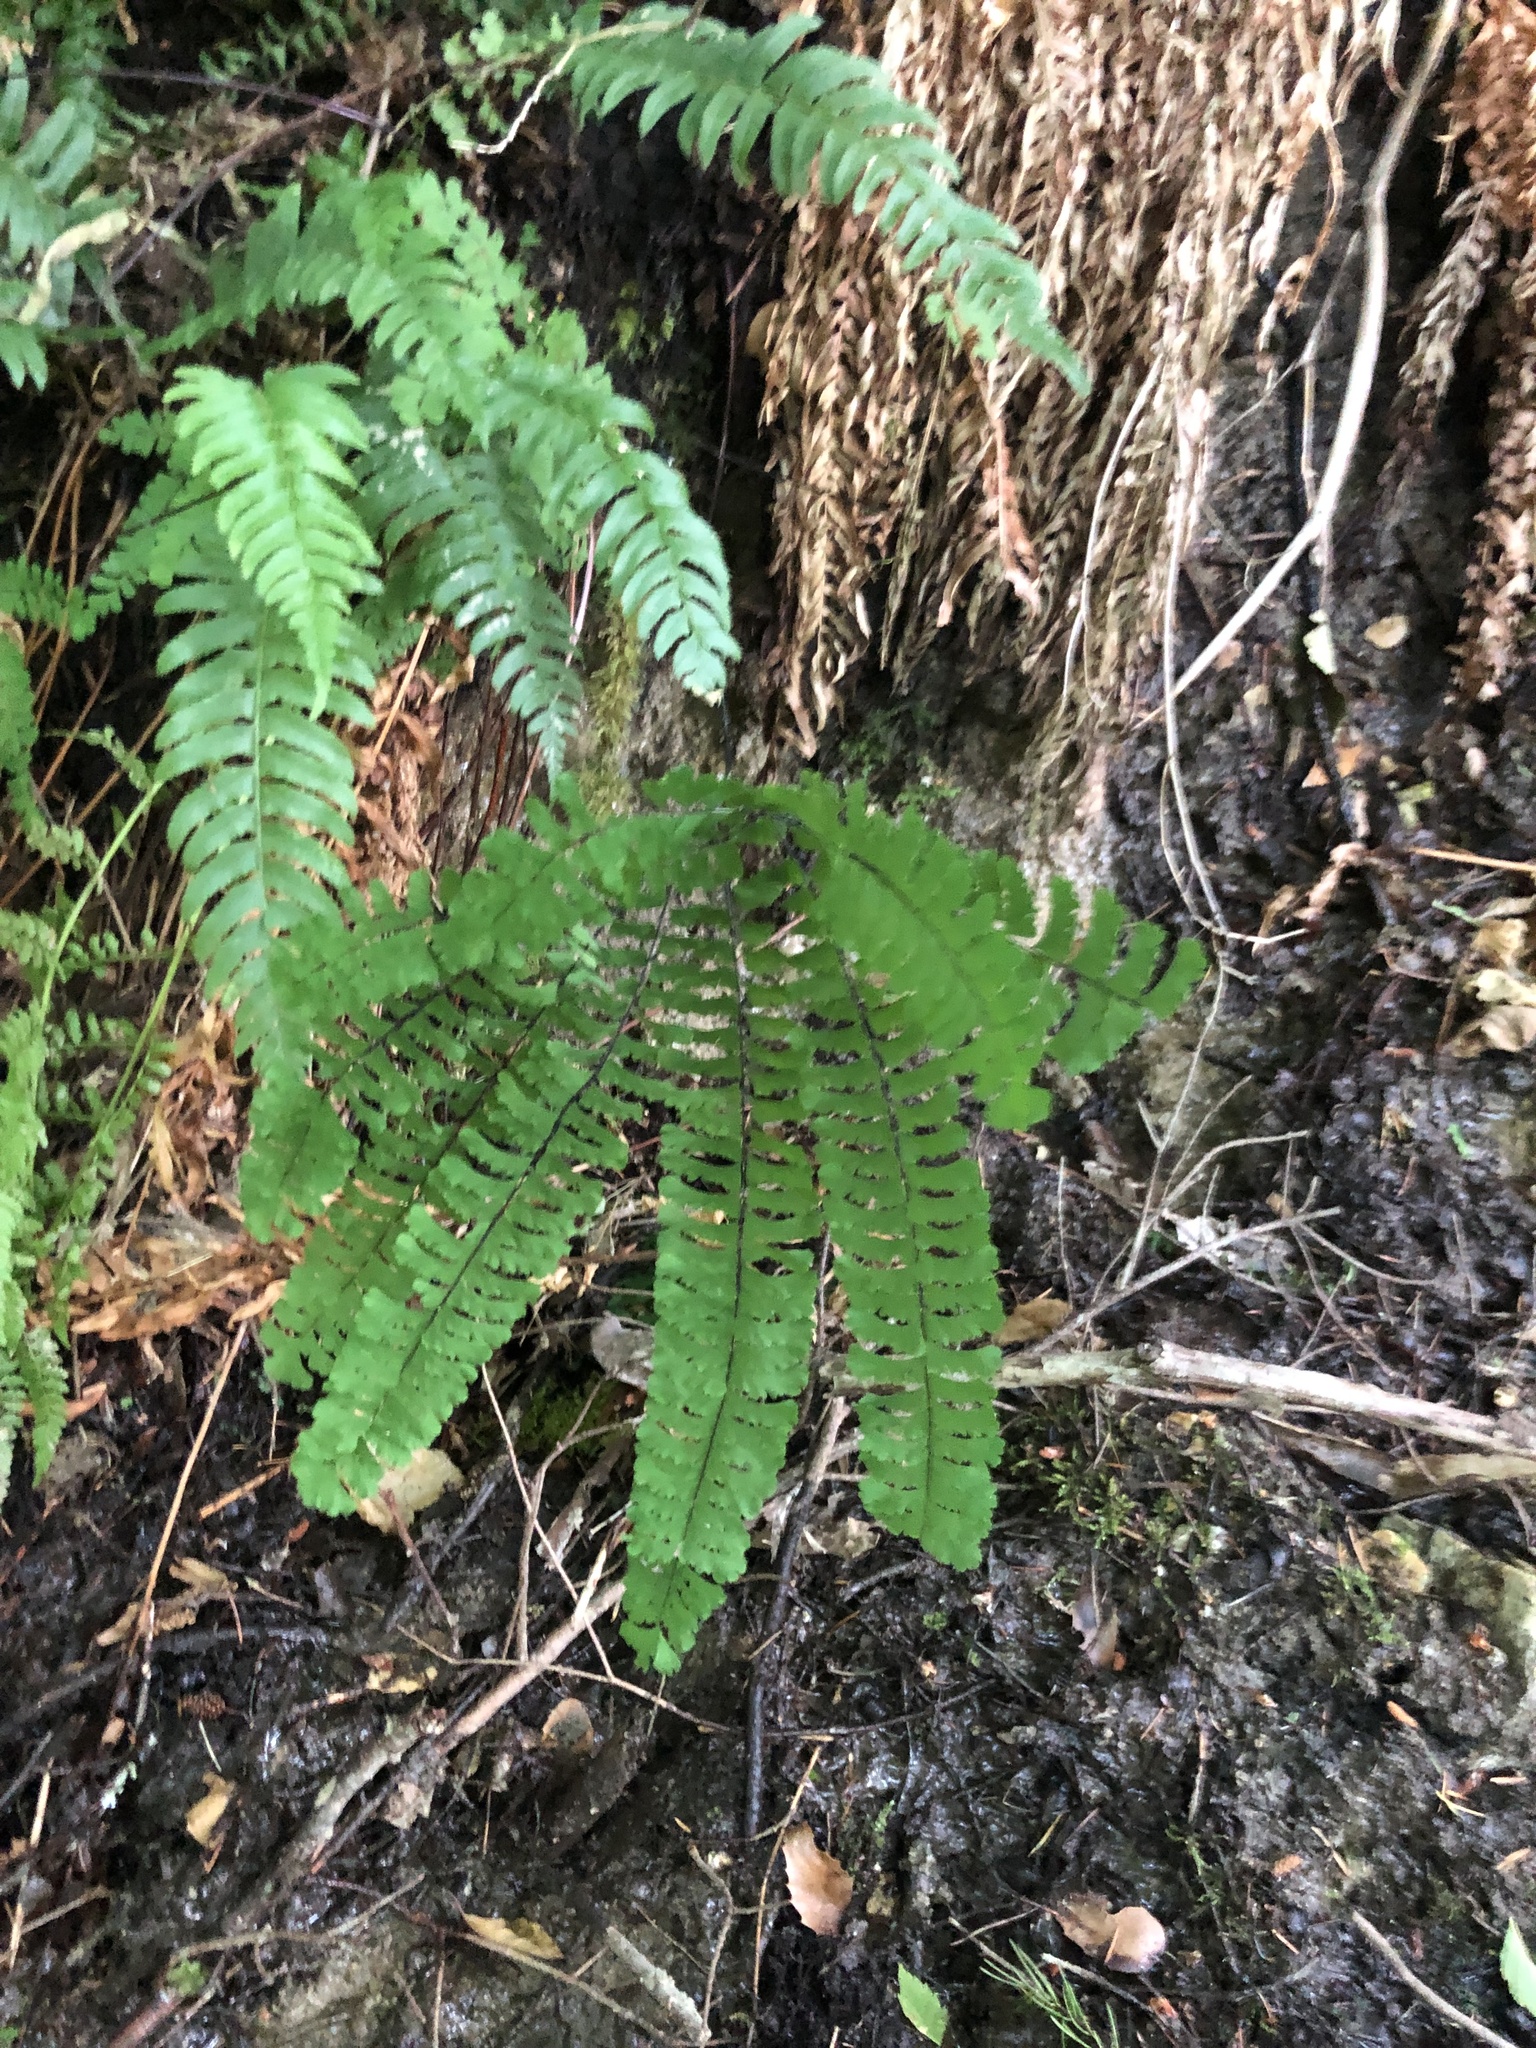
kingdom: Plantae
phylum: Tracheophyta
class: Polypodiopsida
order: Polypodiales
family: Pteridaceae
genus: Adiantum
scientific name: Adiantum aleuticum
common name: Aleutian maidenhair fern
